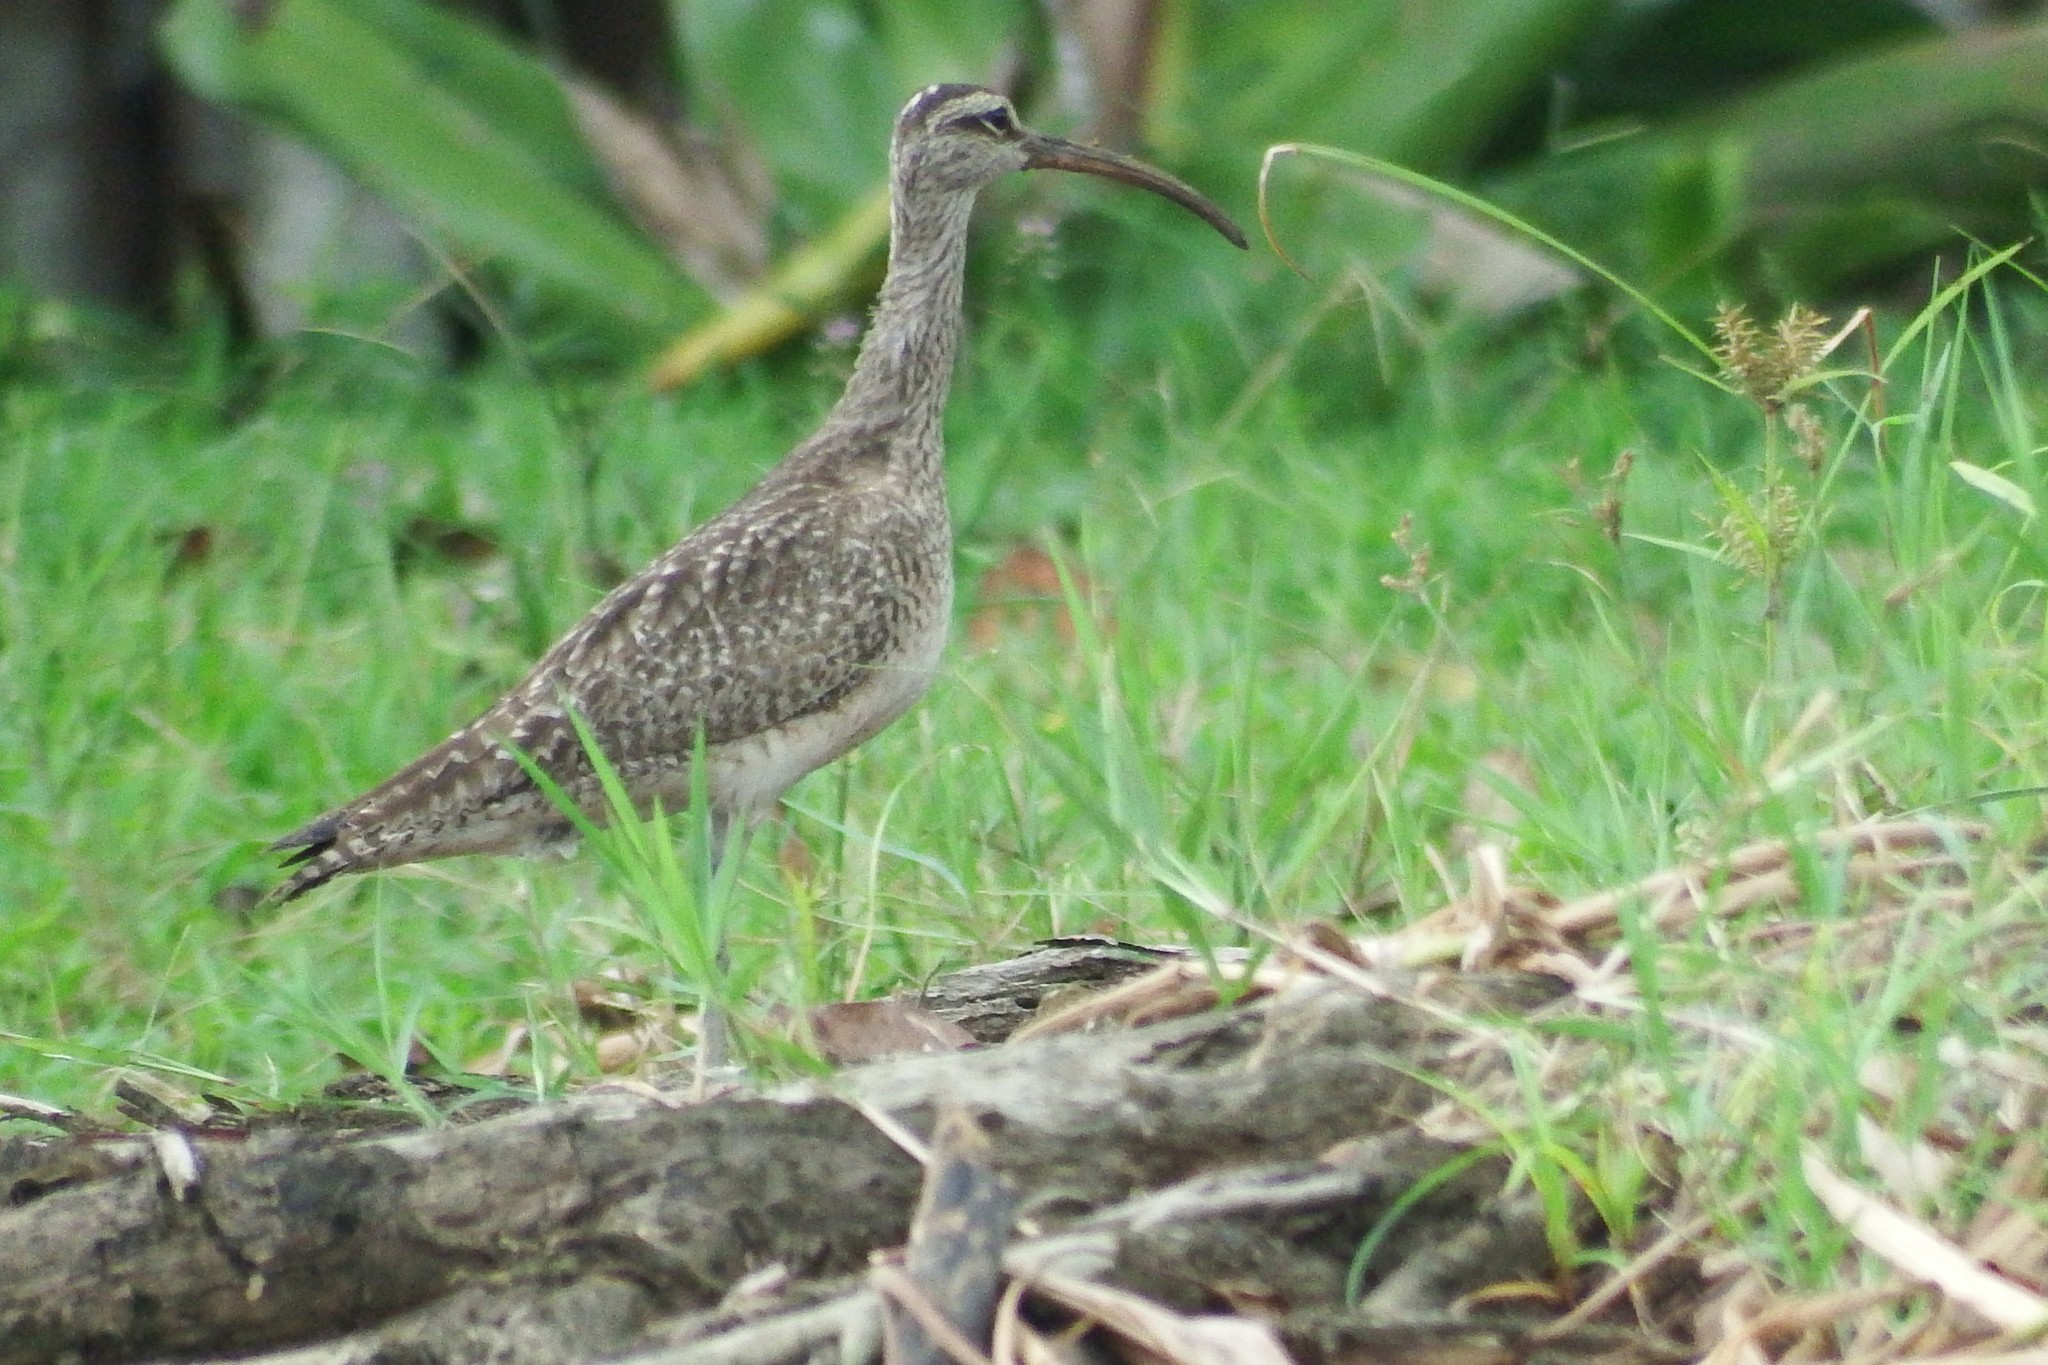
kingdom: Animalia
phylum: Chordata
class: Aves
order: Charadriiformes
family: Scolopacidae
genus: Numenius
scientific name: Numenius phaeopus
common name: Whimbrel
